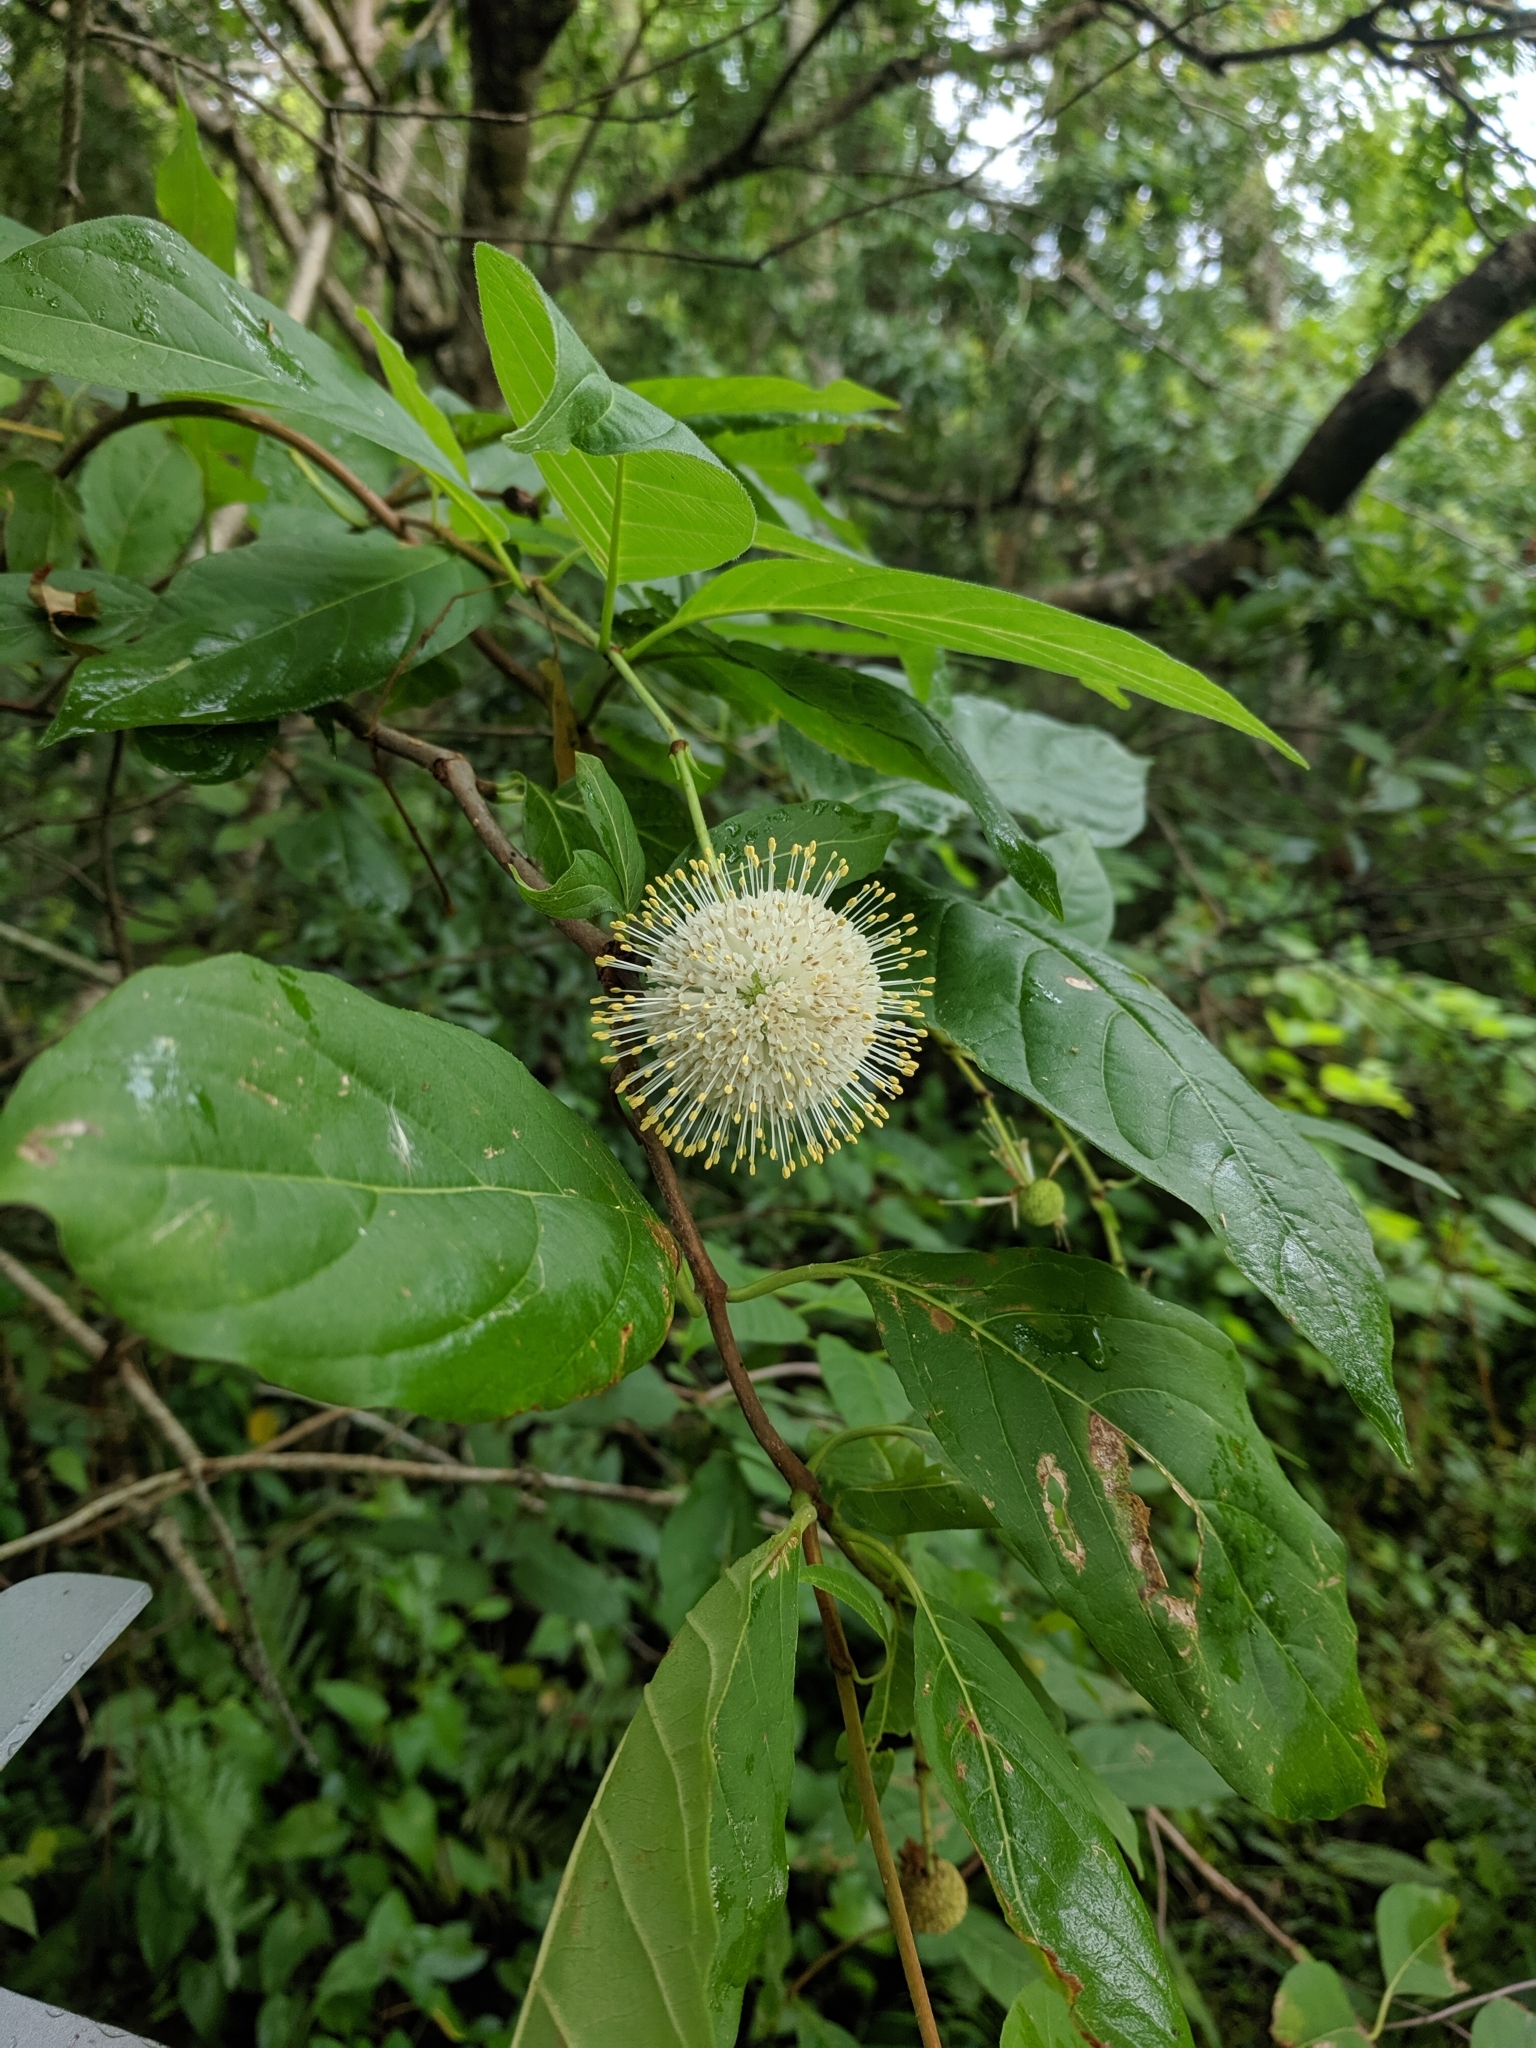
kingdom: Plantae
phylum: Tracheophyta
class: Magnoliopsida
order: Gentianales
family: Rubiaceae
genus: Cephalanthus
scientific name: Cephalanthus occidentalis
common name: Button-willow
